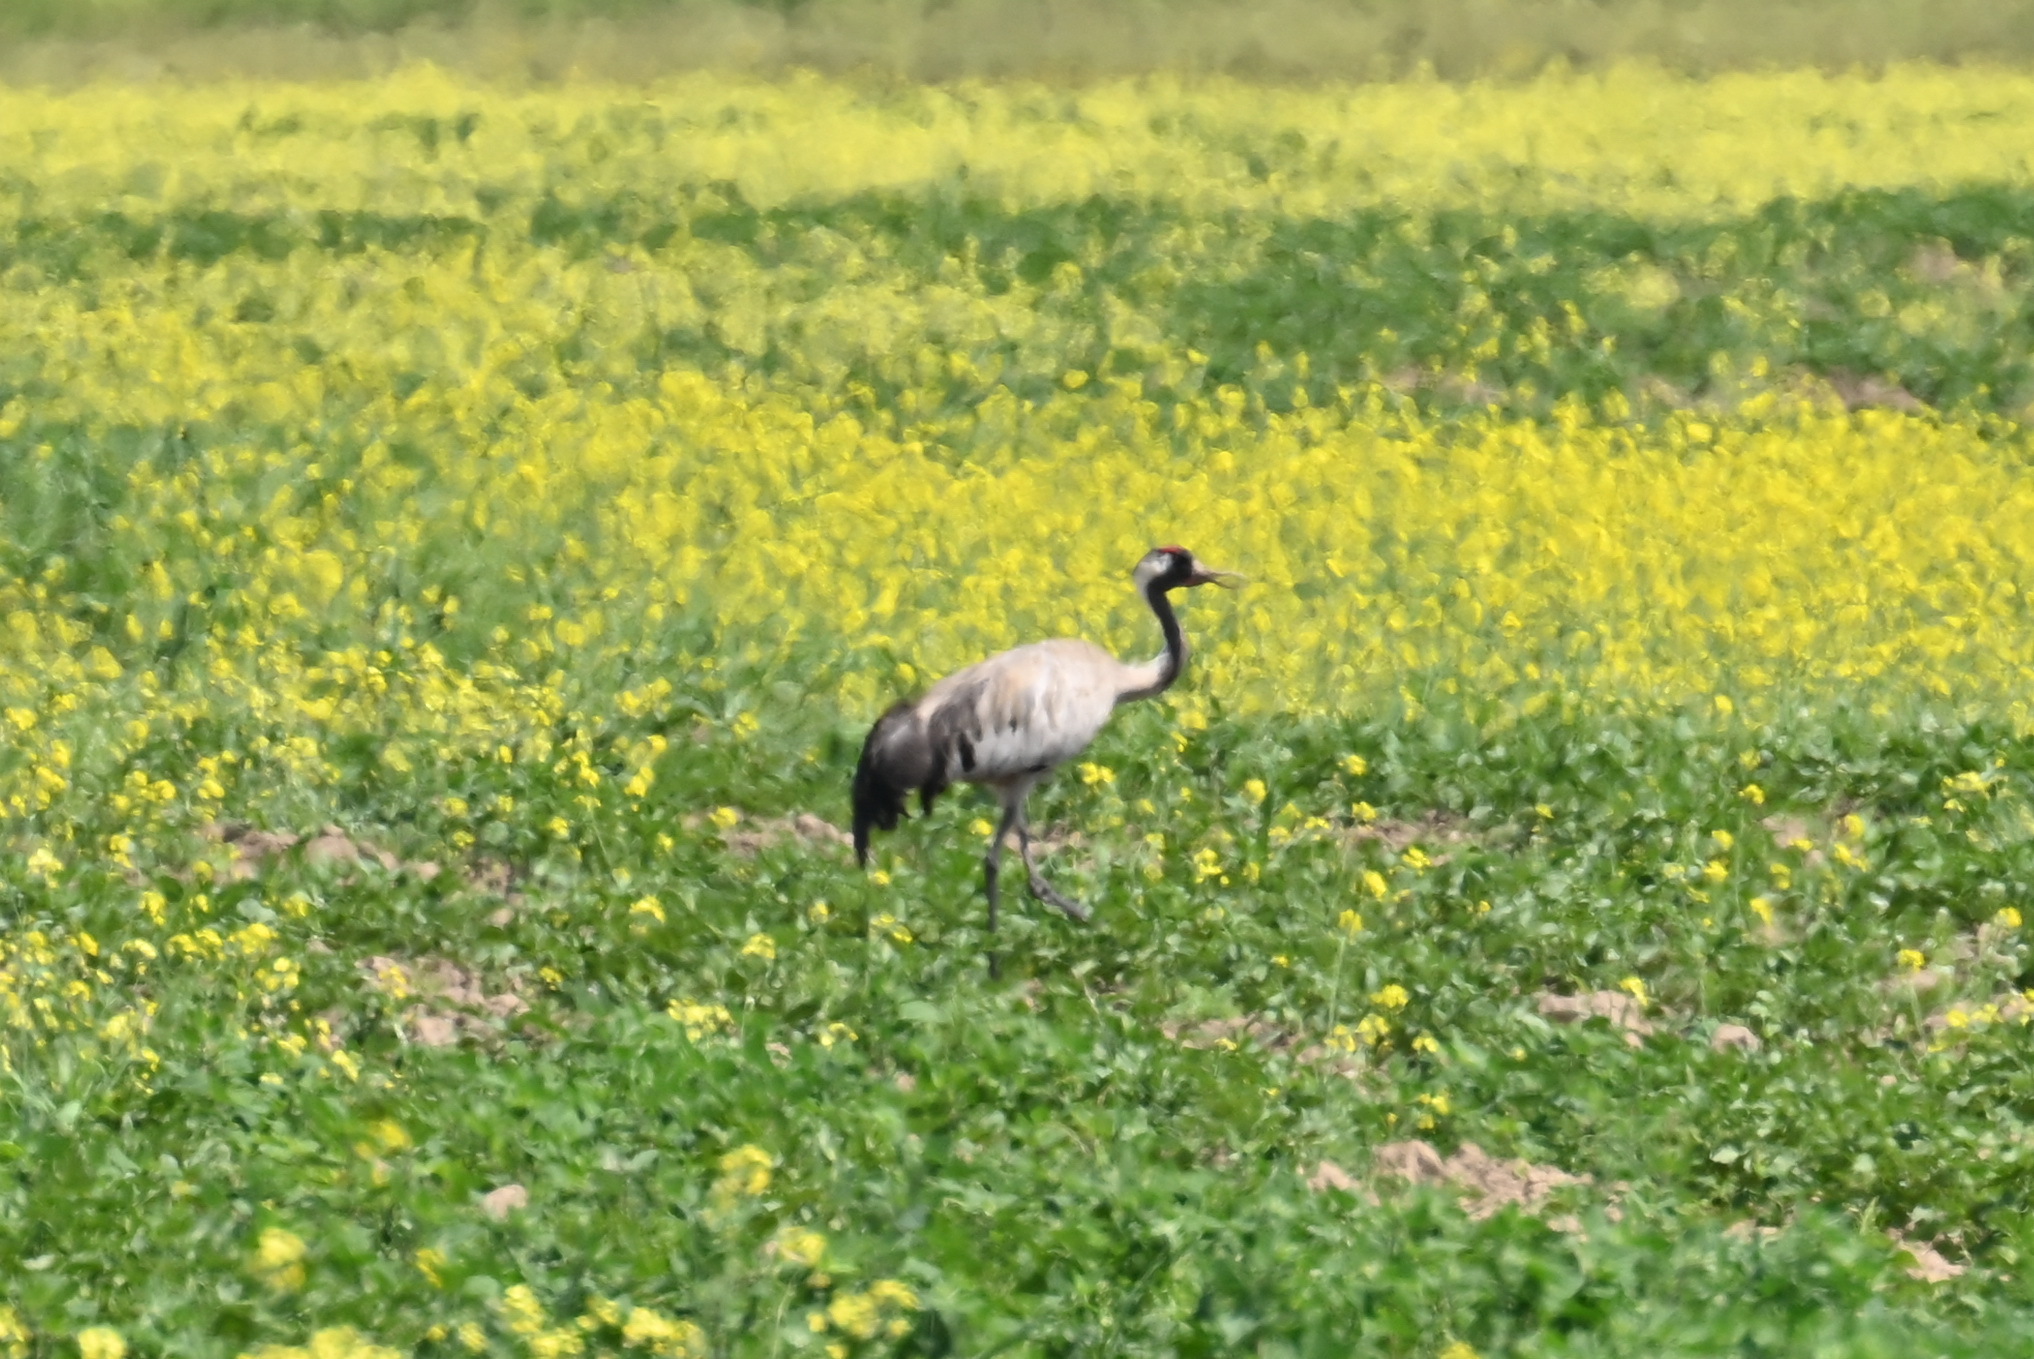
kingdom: Animalia
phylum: Chordata
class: Aves
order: Gruiformes
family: Gruidae
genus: Grus
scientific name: Grus grus
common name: Common crane
